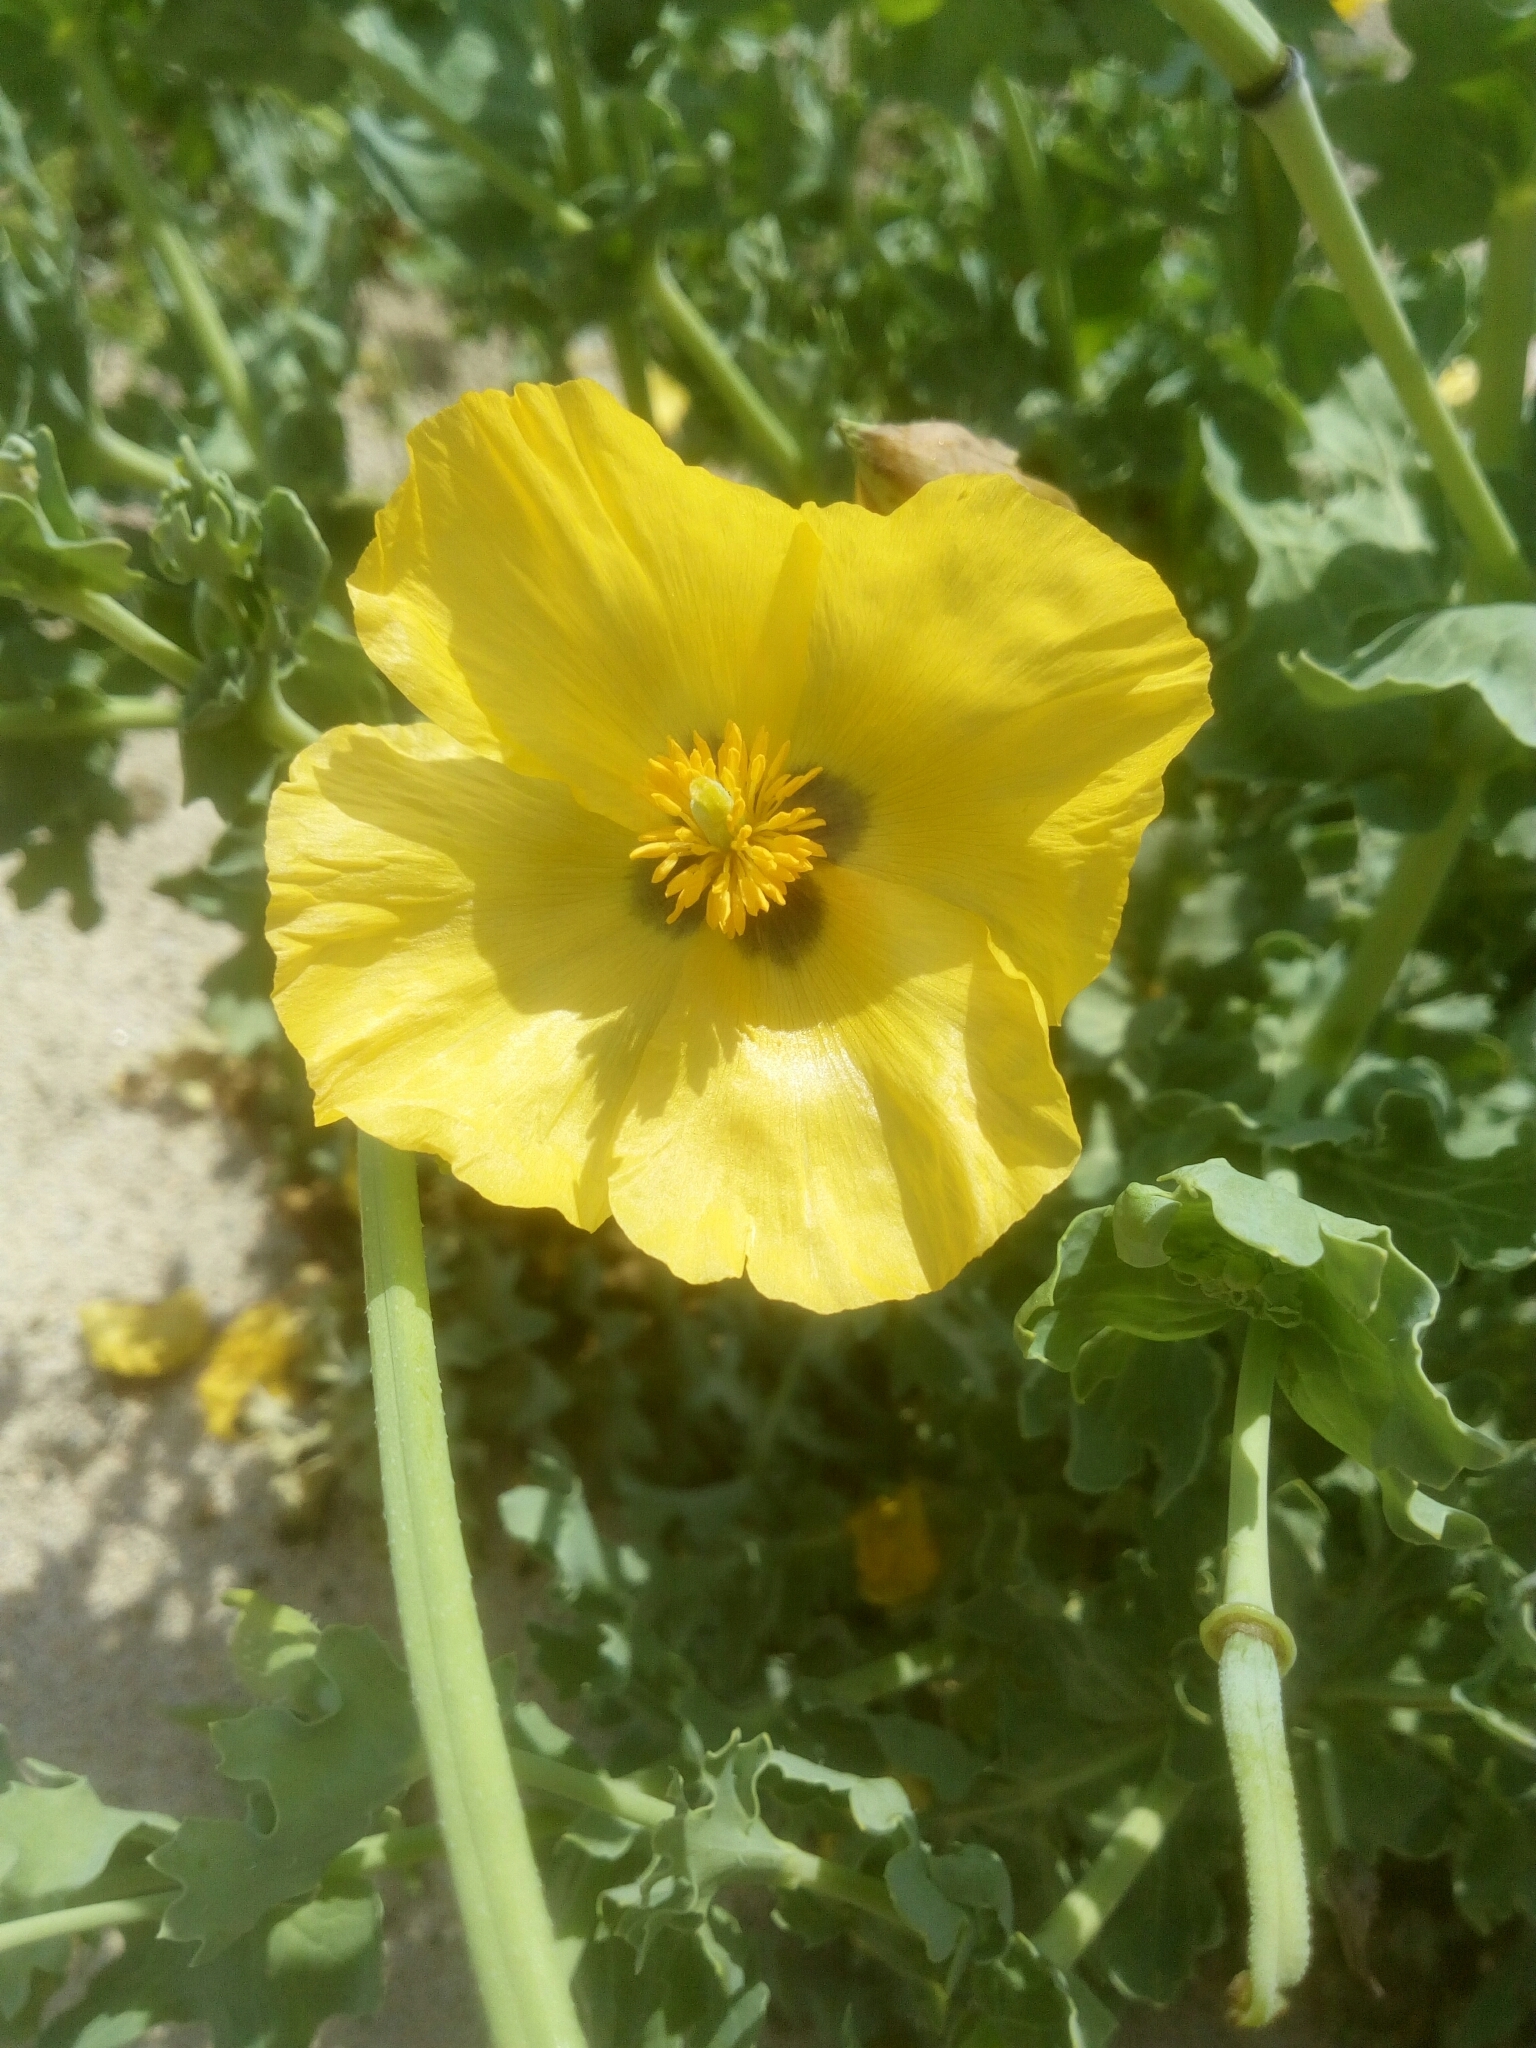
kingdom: Plantae
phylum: Tracheophyta
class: Magnoliopsida
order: Ranunculales
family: Papaveraceae
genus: Glaucium
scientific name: Glaucium flavum
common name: Yellow horned-poppy
